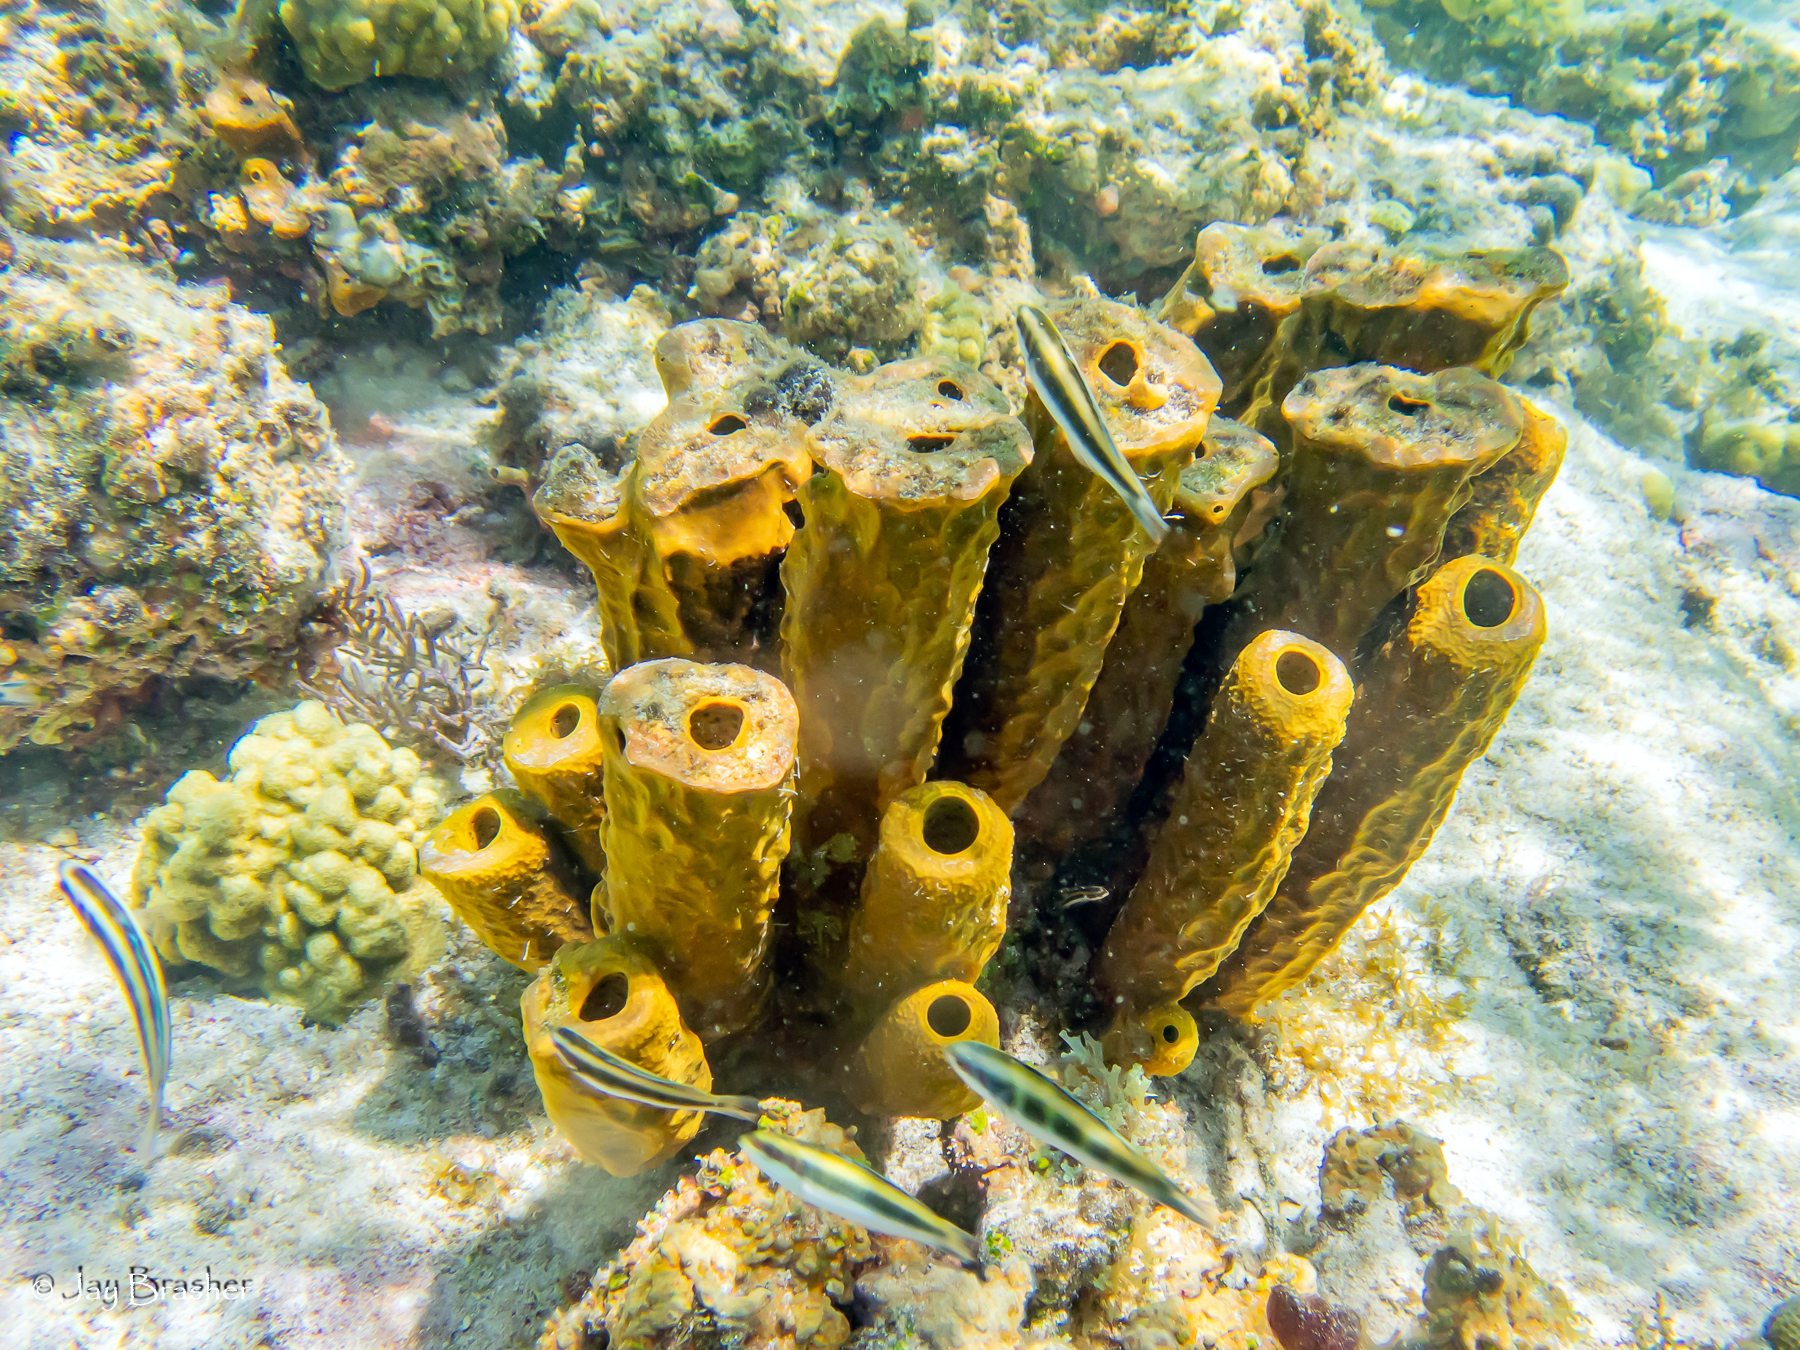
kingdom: Animalia
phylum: Porifera
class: Demospongiae
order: Verongiida
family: Aplysinidae
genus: Aplysina
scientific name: Aplysina fistularis
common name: Candle sponge
